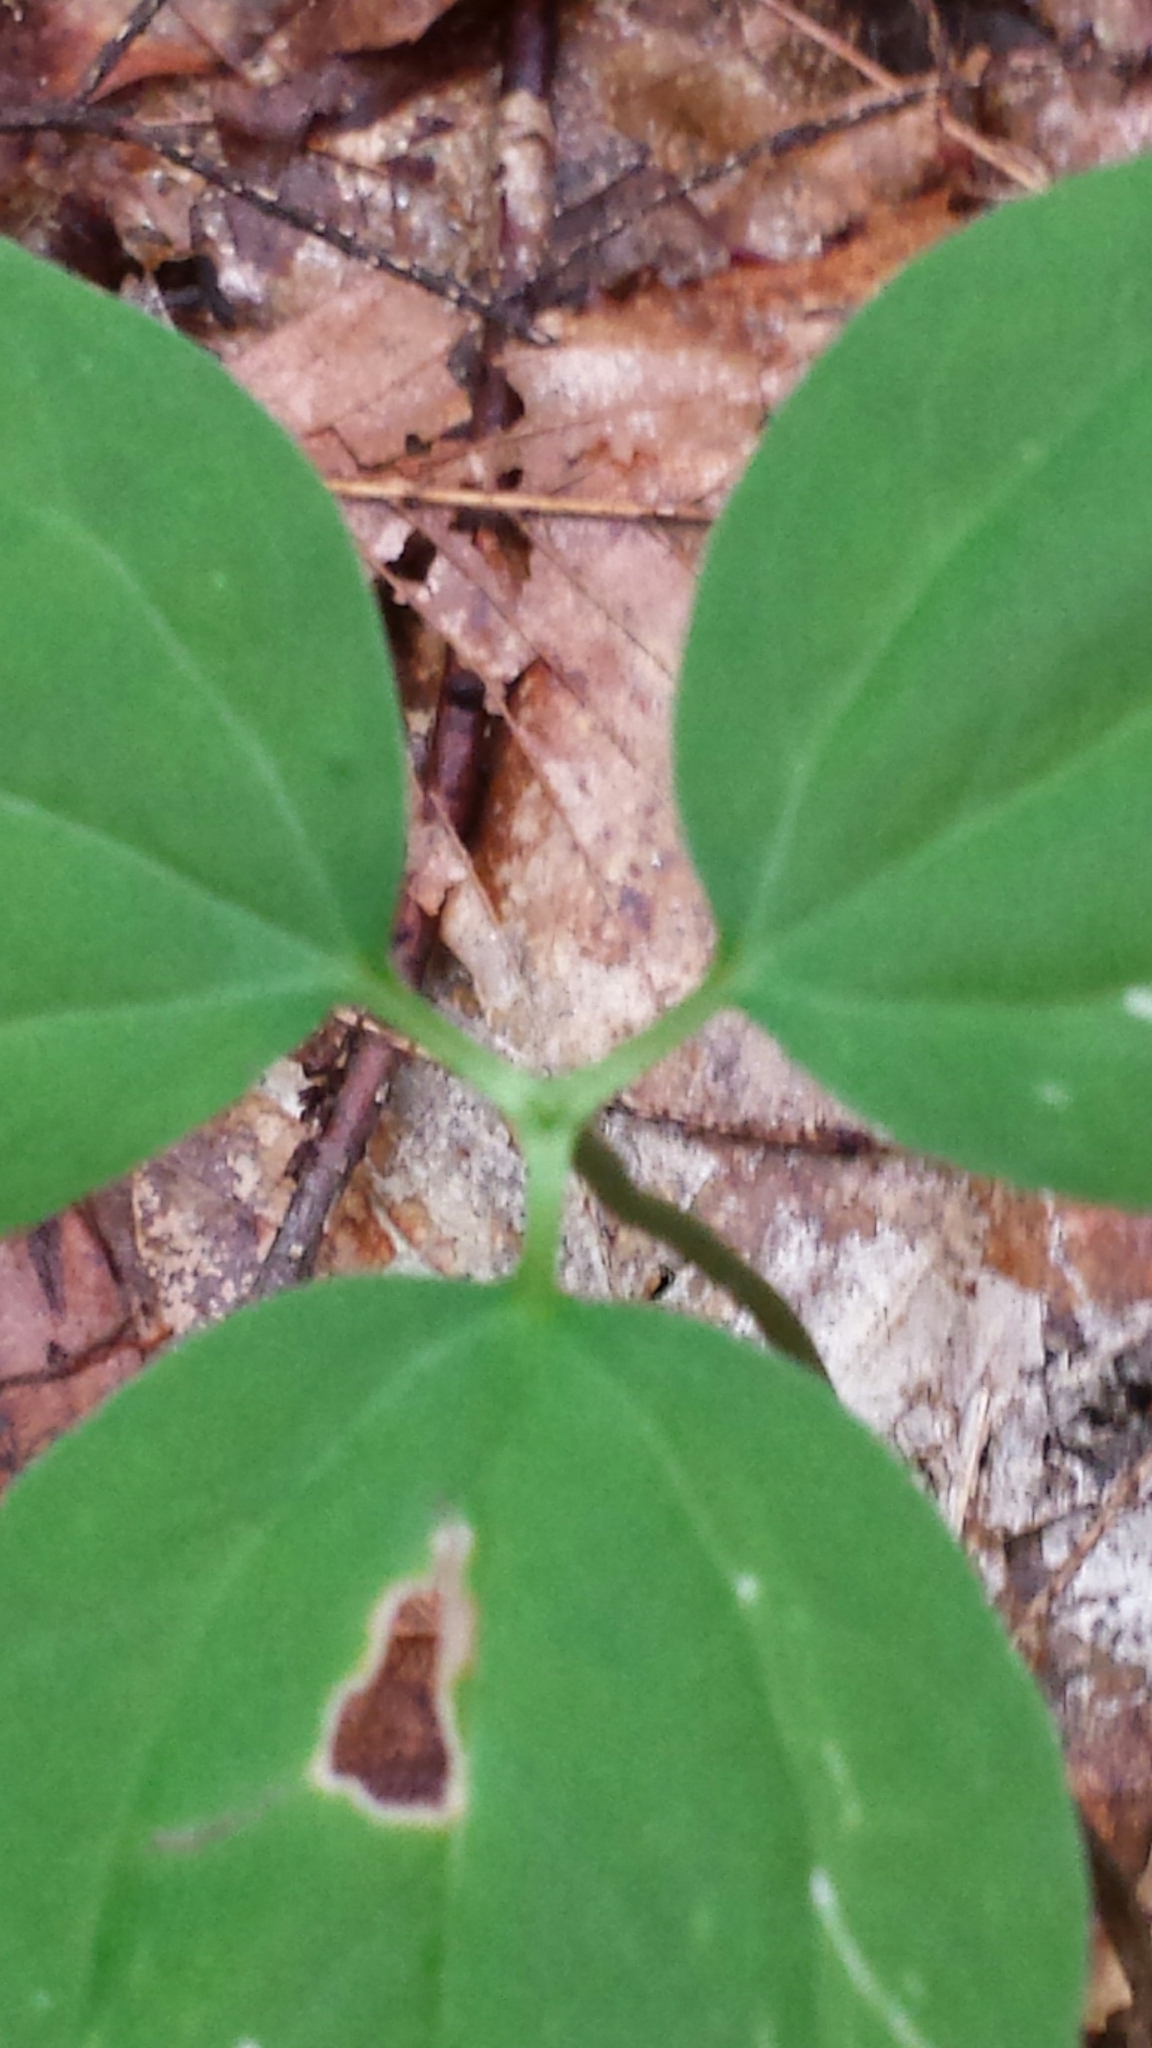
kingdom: Plantae
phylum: Tracheophyta
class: Liliopsida
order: Liliales
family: Melanthiaceae
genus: Trillium
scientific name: Trillium undulatum
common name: Paint trillium
